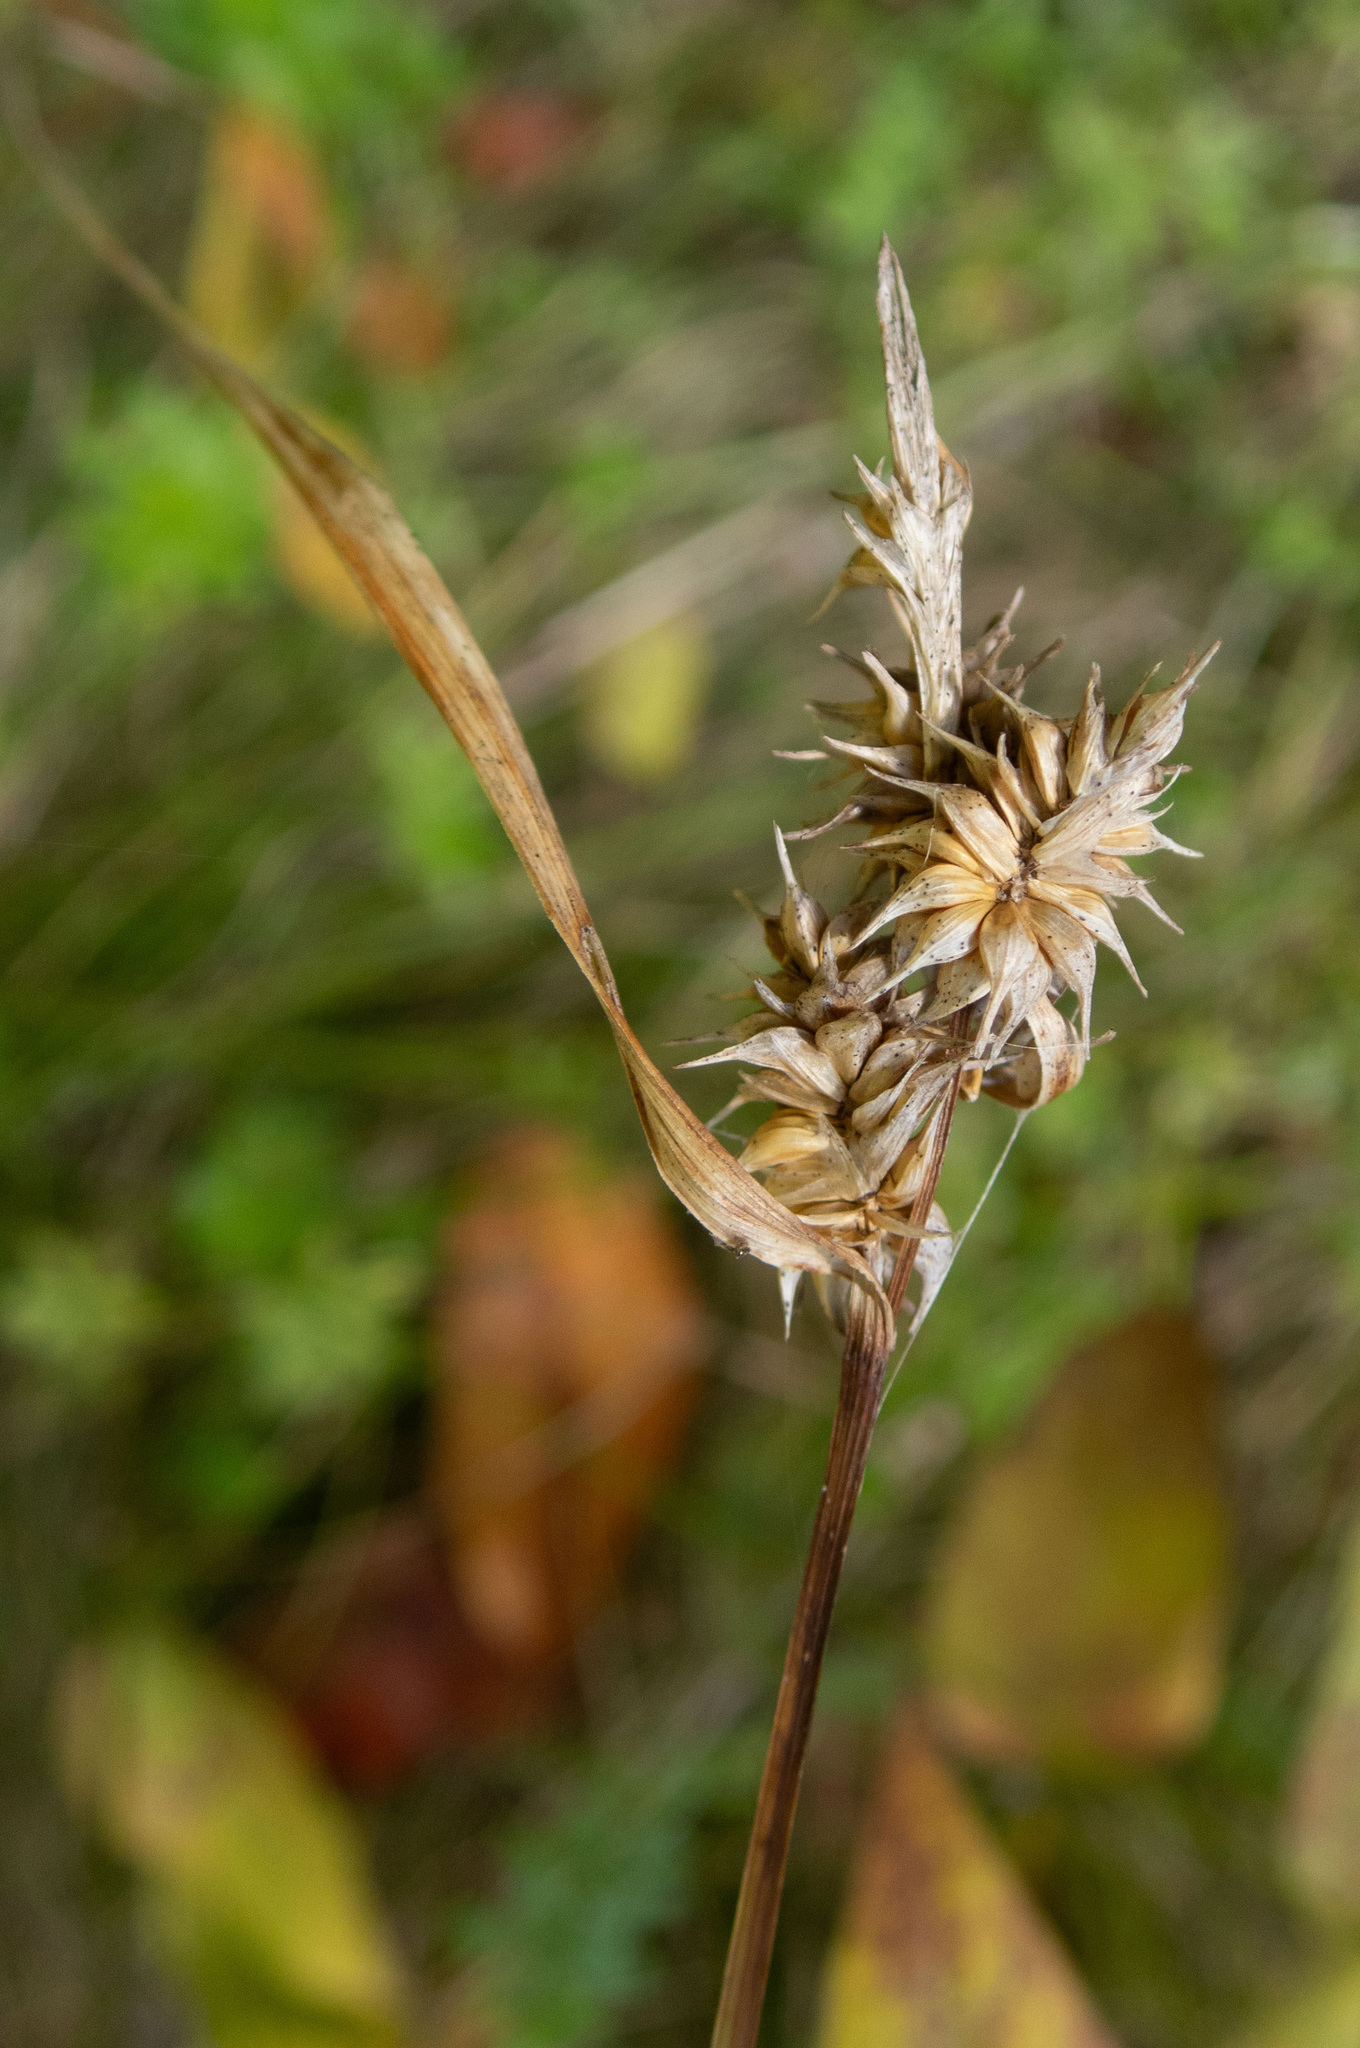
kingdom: Plantae
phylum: Tracheophyta
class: Liliopsida
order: Poales
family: Cyperaceae
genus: Carex
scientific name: Carex flava
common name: Large yellow-sedge
